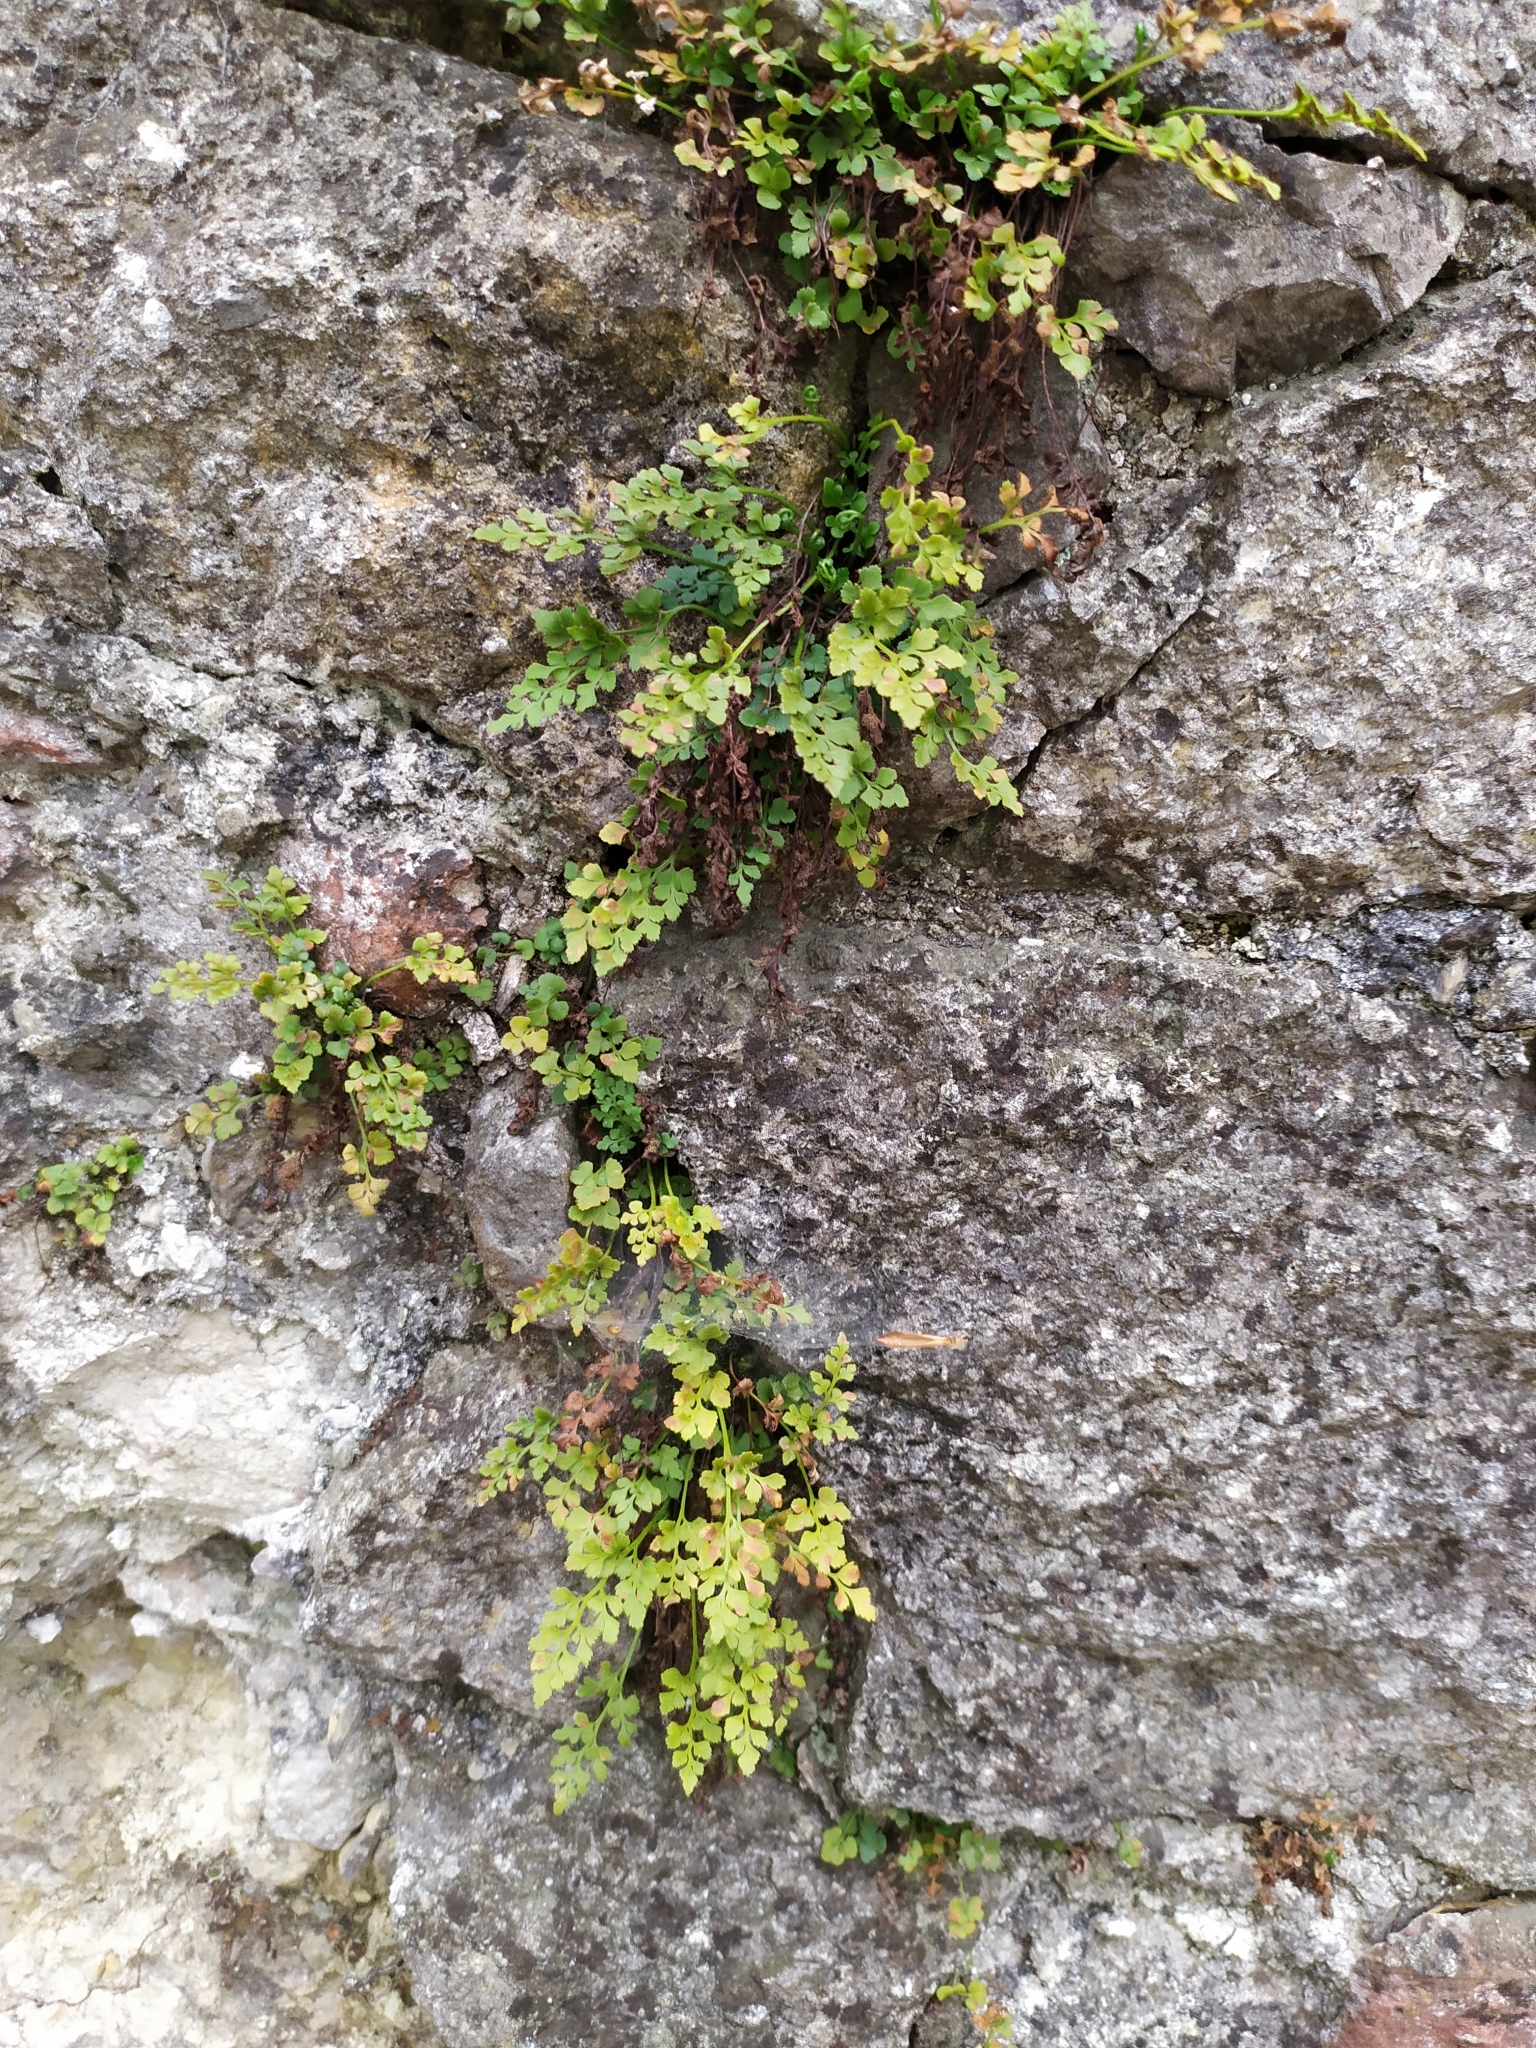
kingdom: Plantae
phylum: Tracheophyta
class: Polypodiopsida
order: Polypodiales
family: Aspleniaceae
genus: Asplenium
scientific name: Asplenium ruta-muraria
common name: Wall-rue
